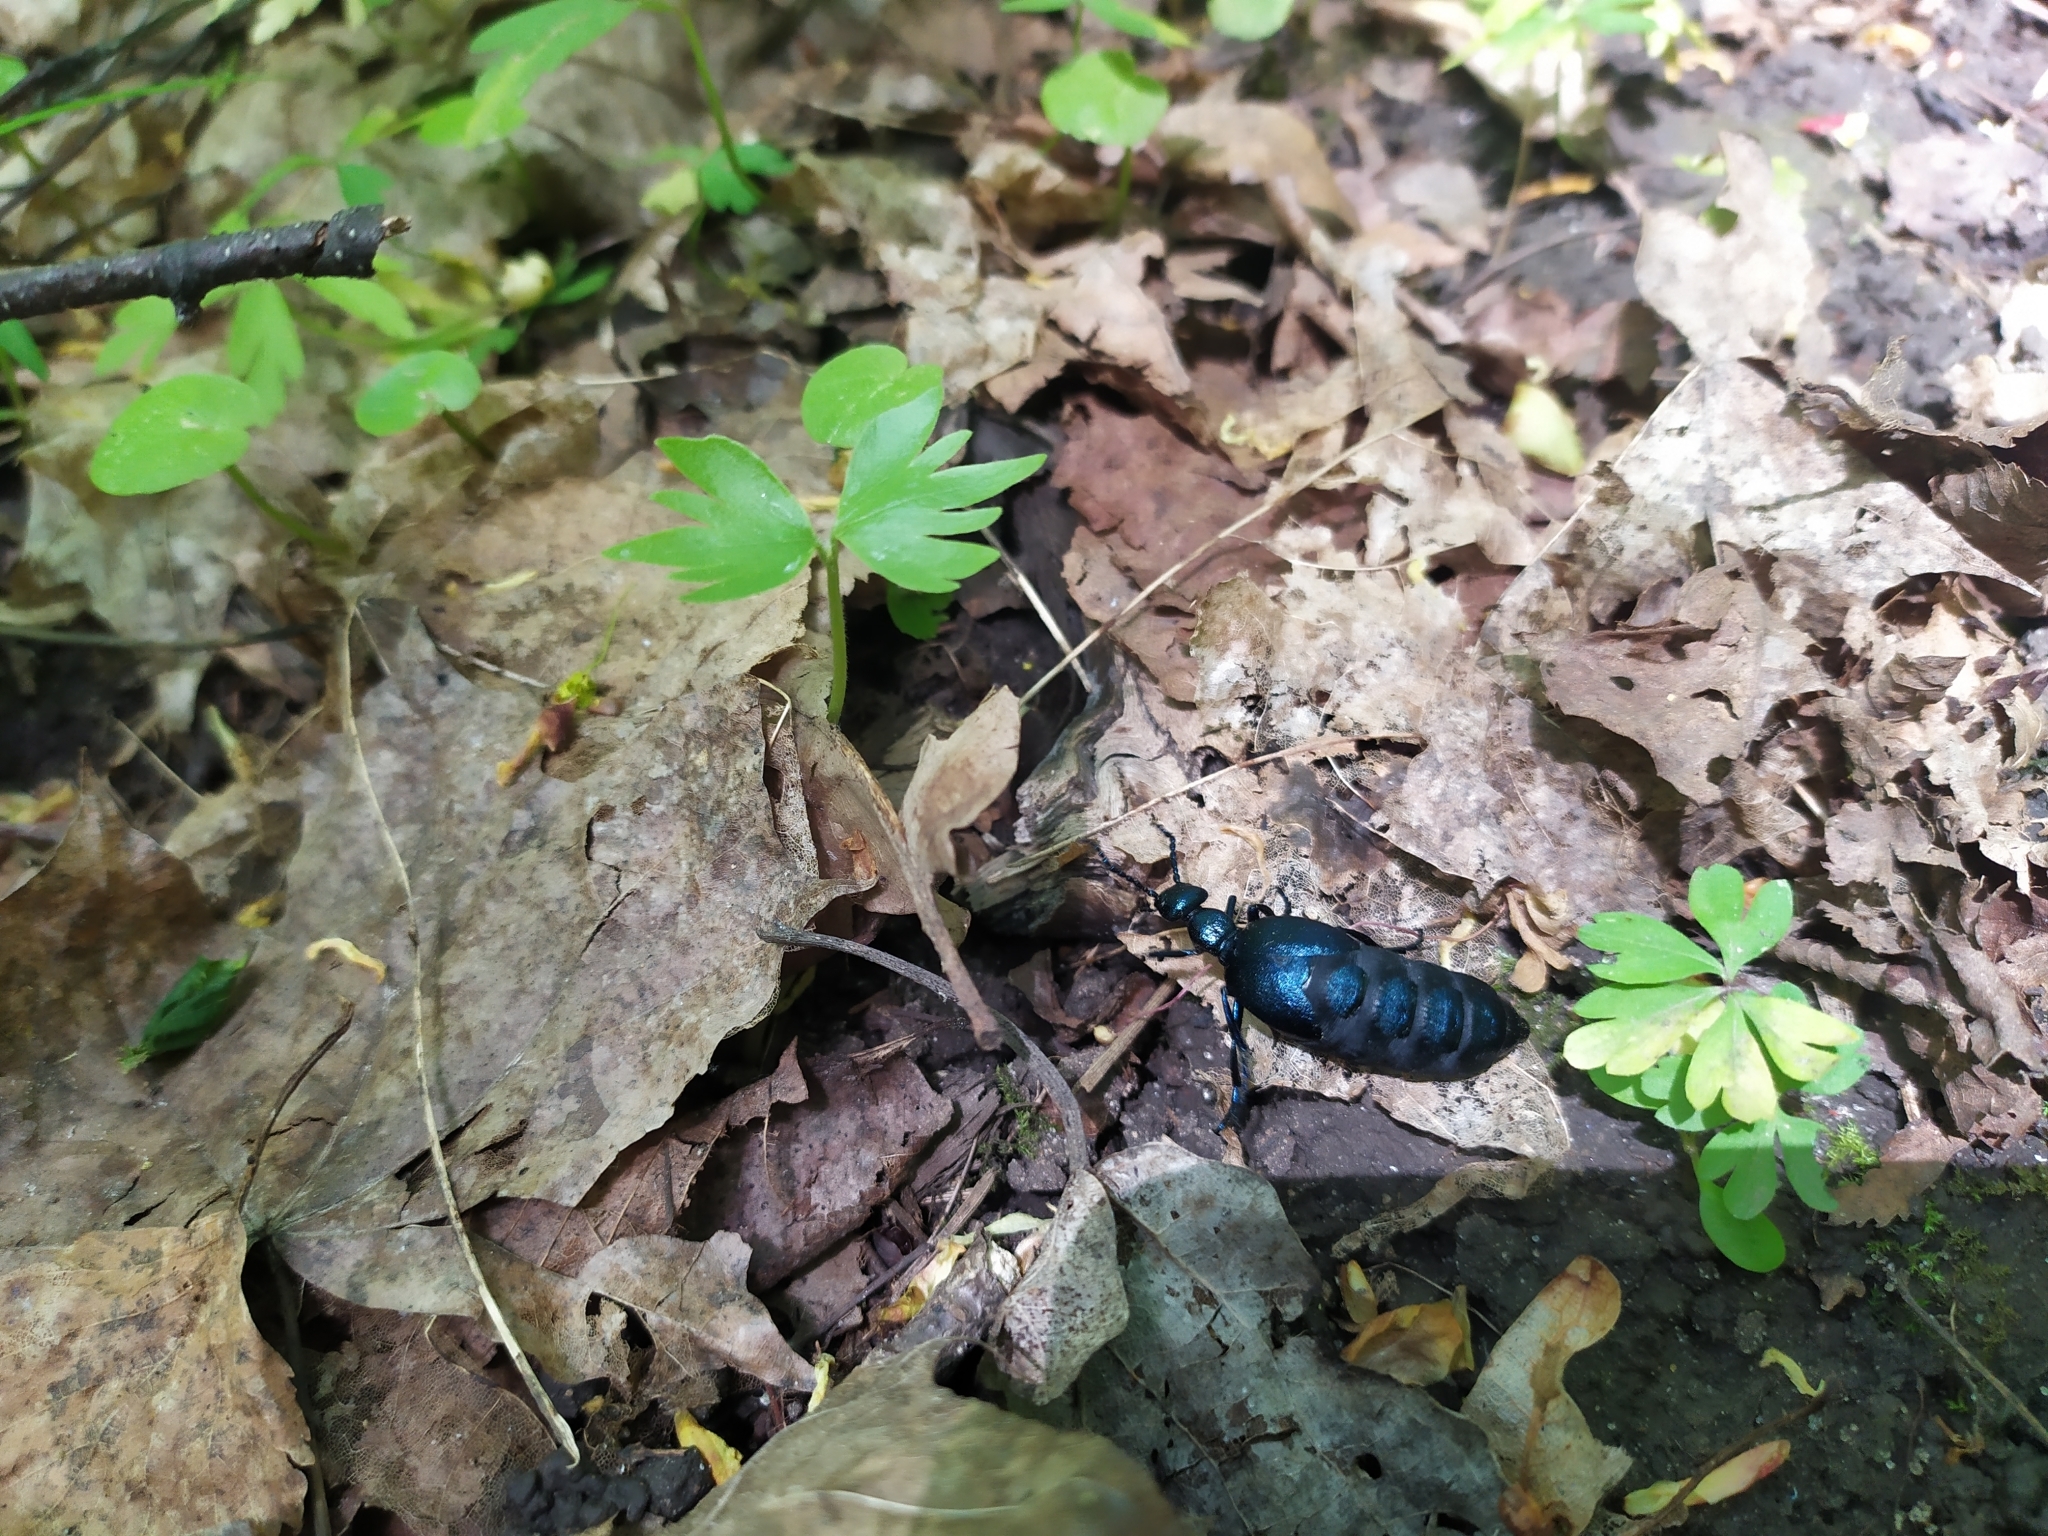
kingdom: Animalia
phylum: Arthropoda
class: Insecta
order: Coleoptera
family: Meloidae
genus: Meloe
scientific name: Meloe violaceus
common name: Violet oil-beetle
